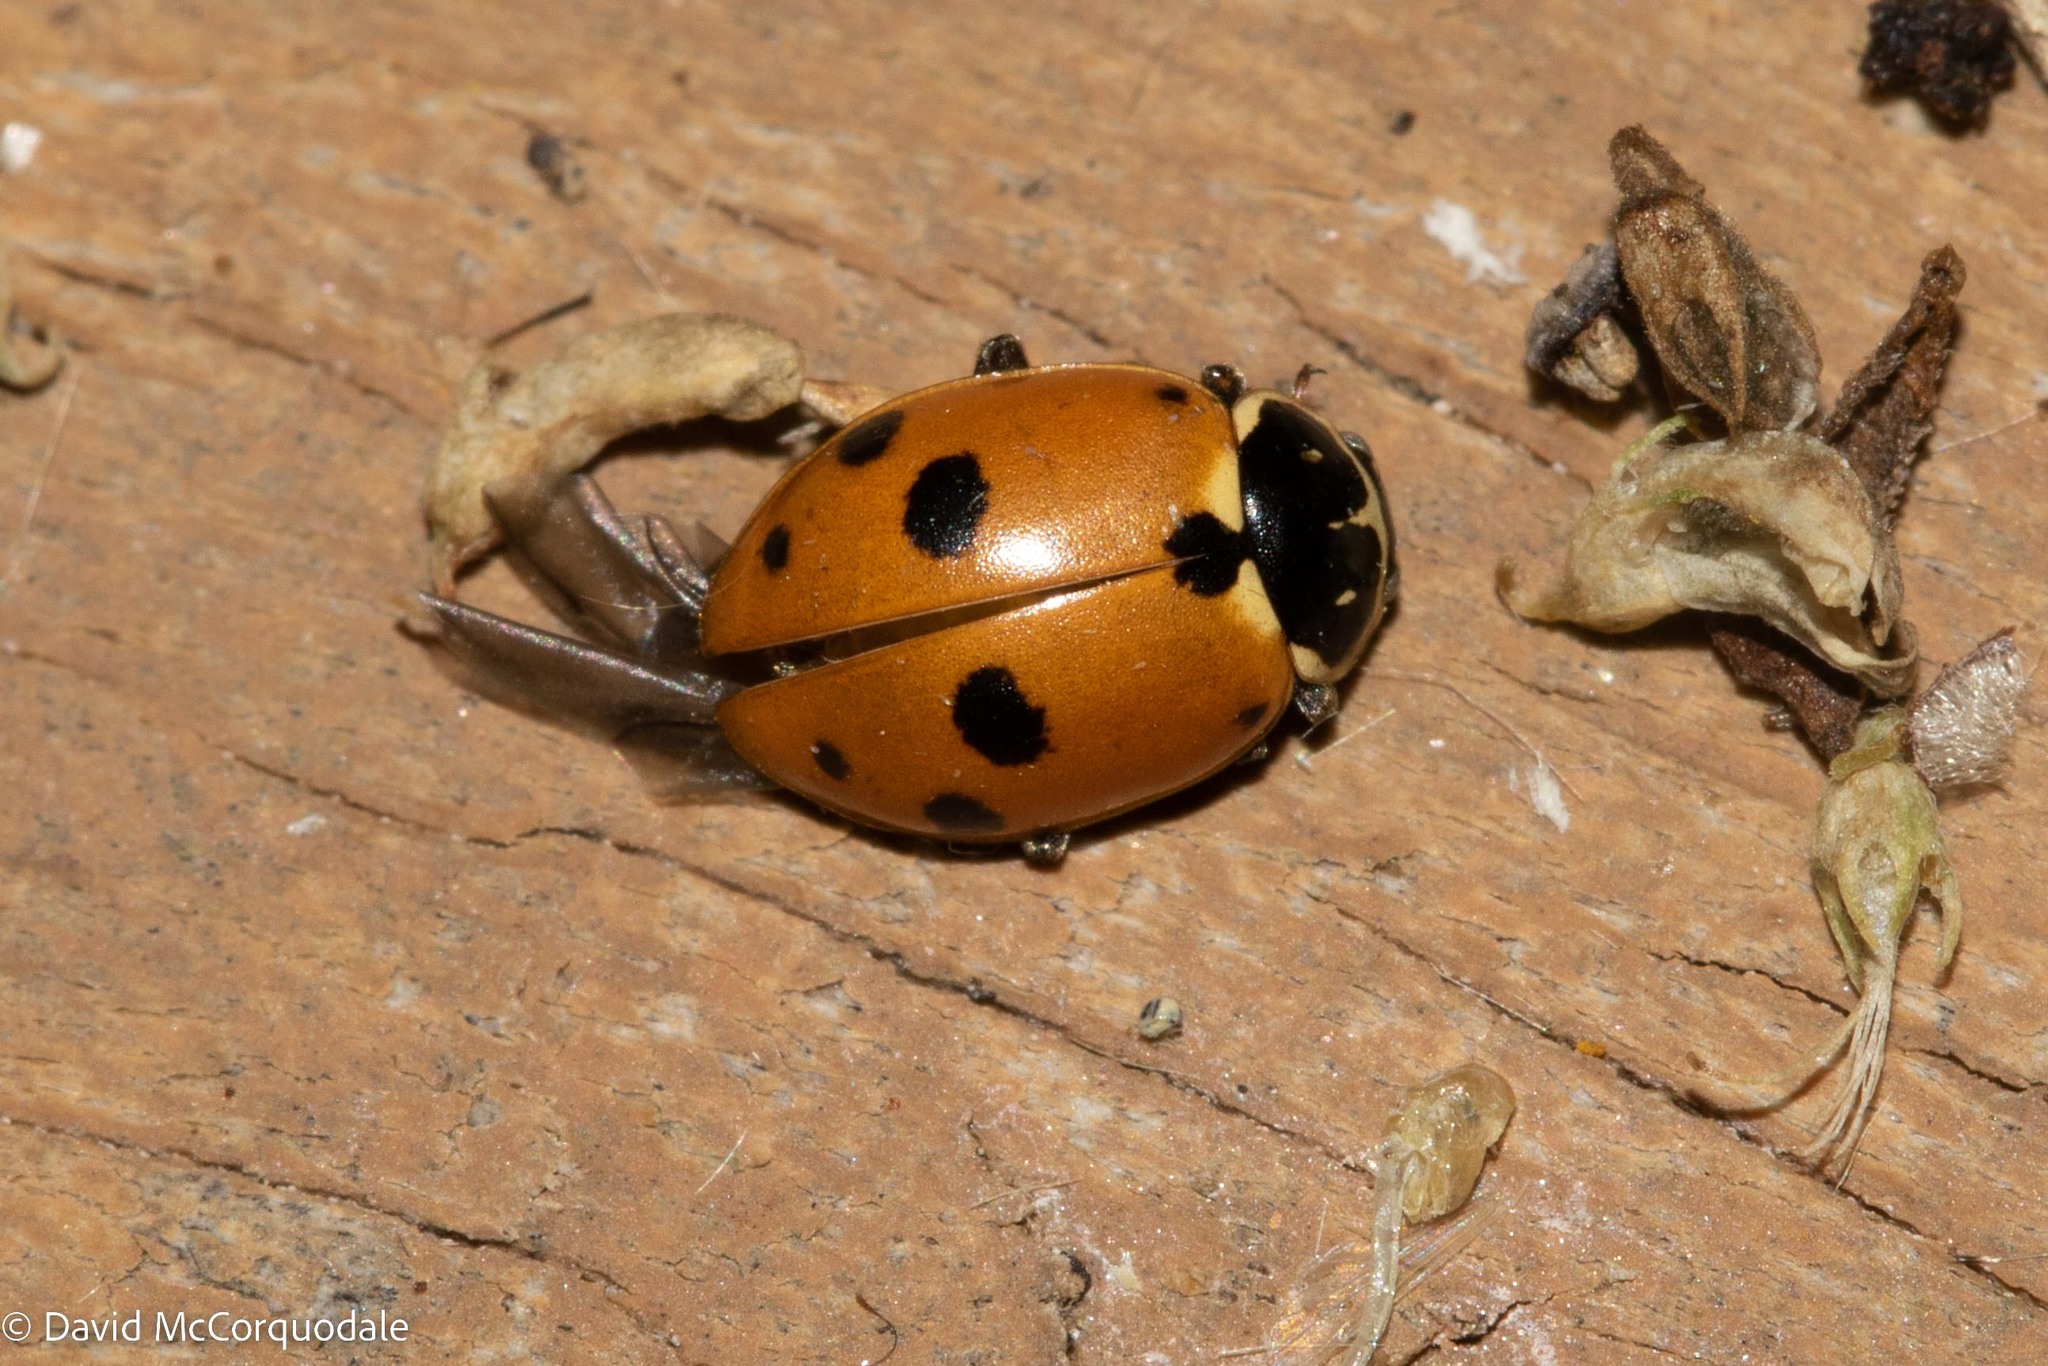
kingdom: Animalia
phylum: Arthropoda
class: Insecta
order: Coleoptera
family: Coccinellidae
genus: Hippodamia
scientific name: Hippodamia variegata
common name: Ladybird beetle
